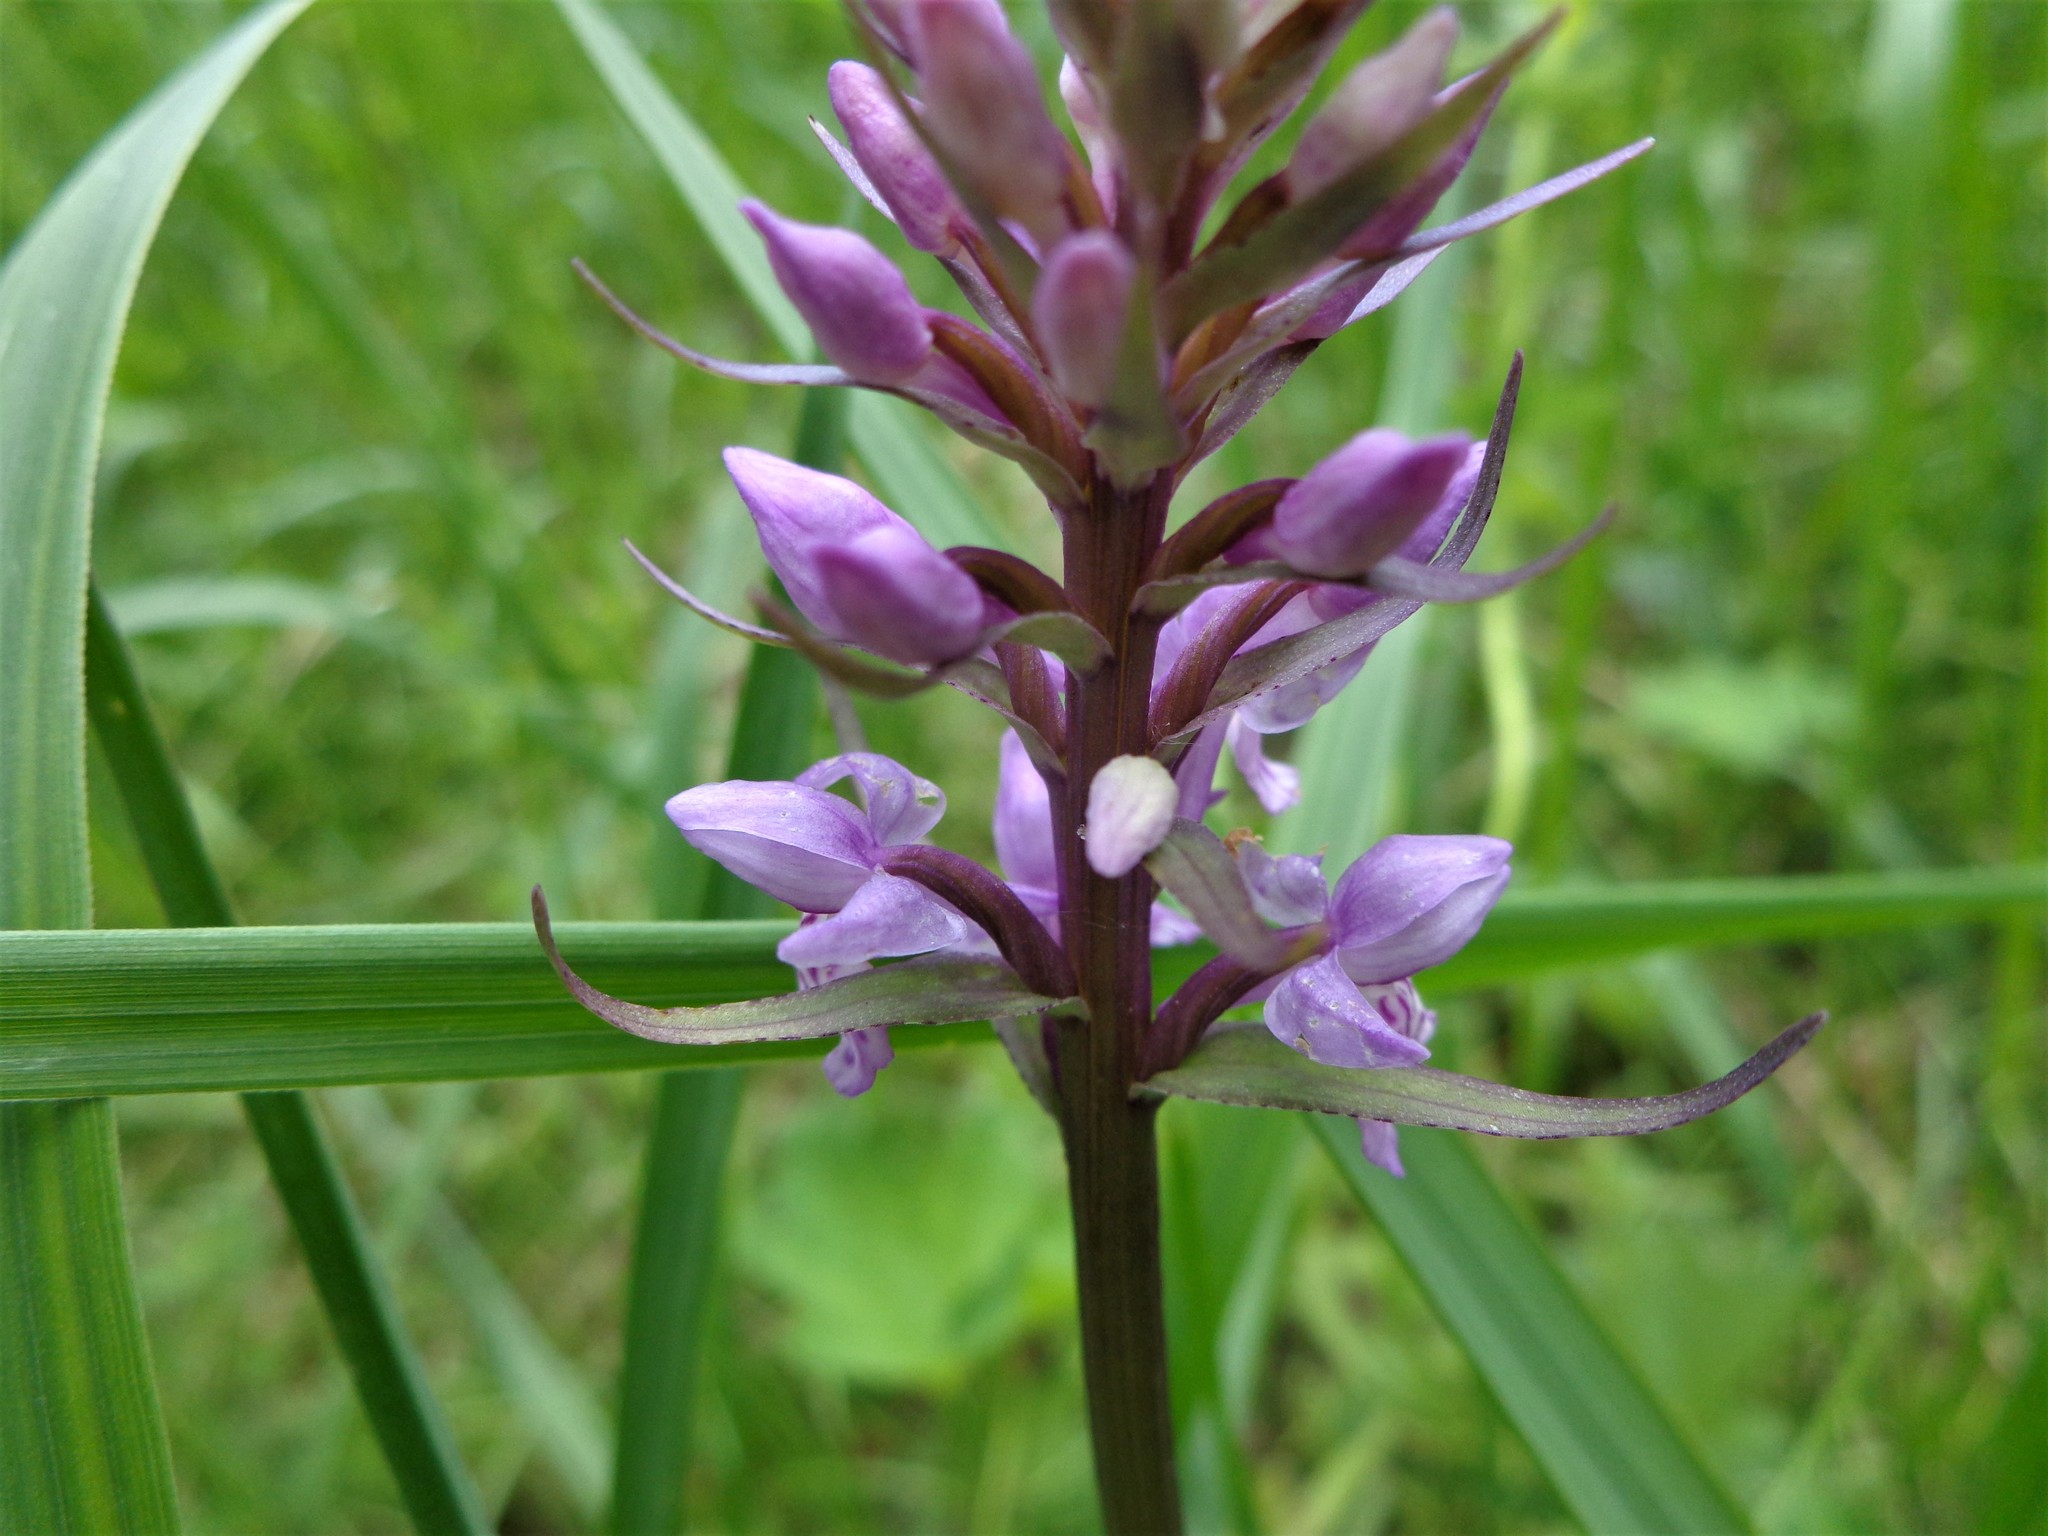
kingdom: Plantae
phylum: Tracheophyta
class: Liliopsida
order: Asparagales
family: Orchidaceae
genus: Dactylorhiza
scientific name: Dactylorhiza maculata
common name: Heath spotted-orchid
